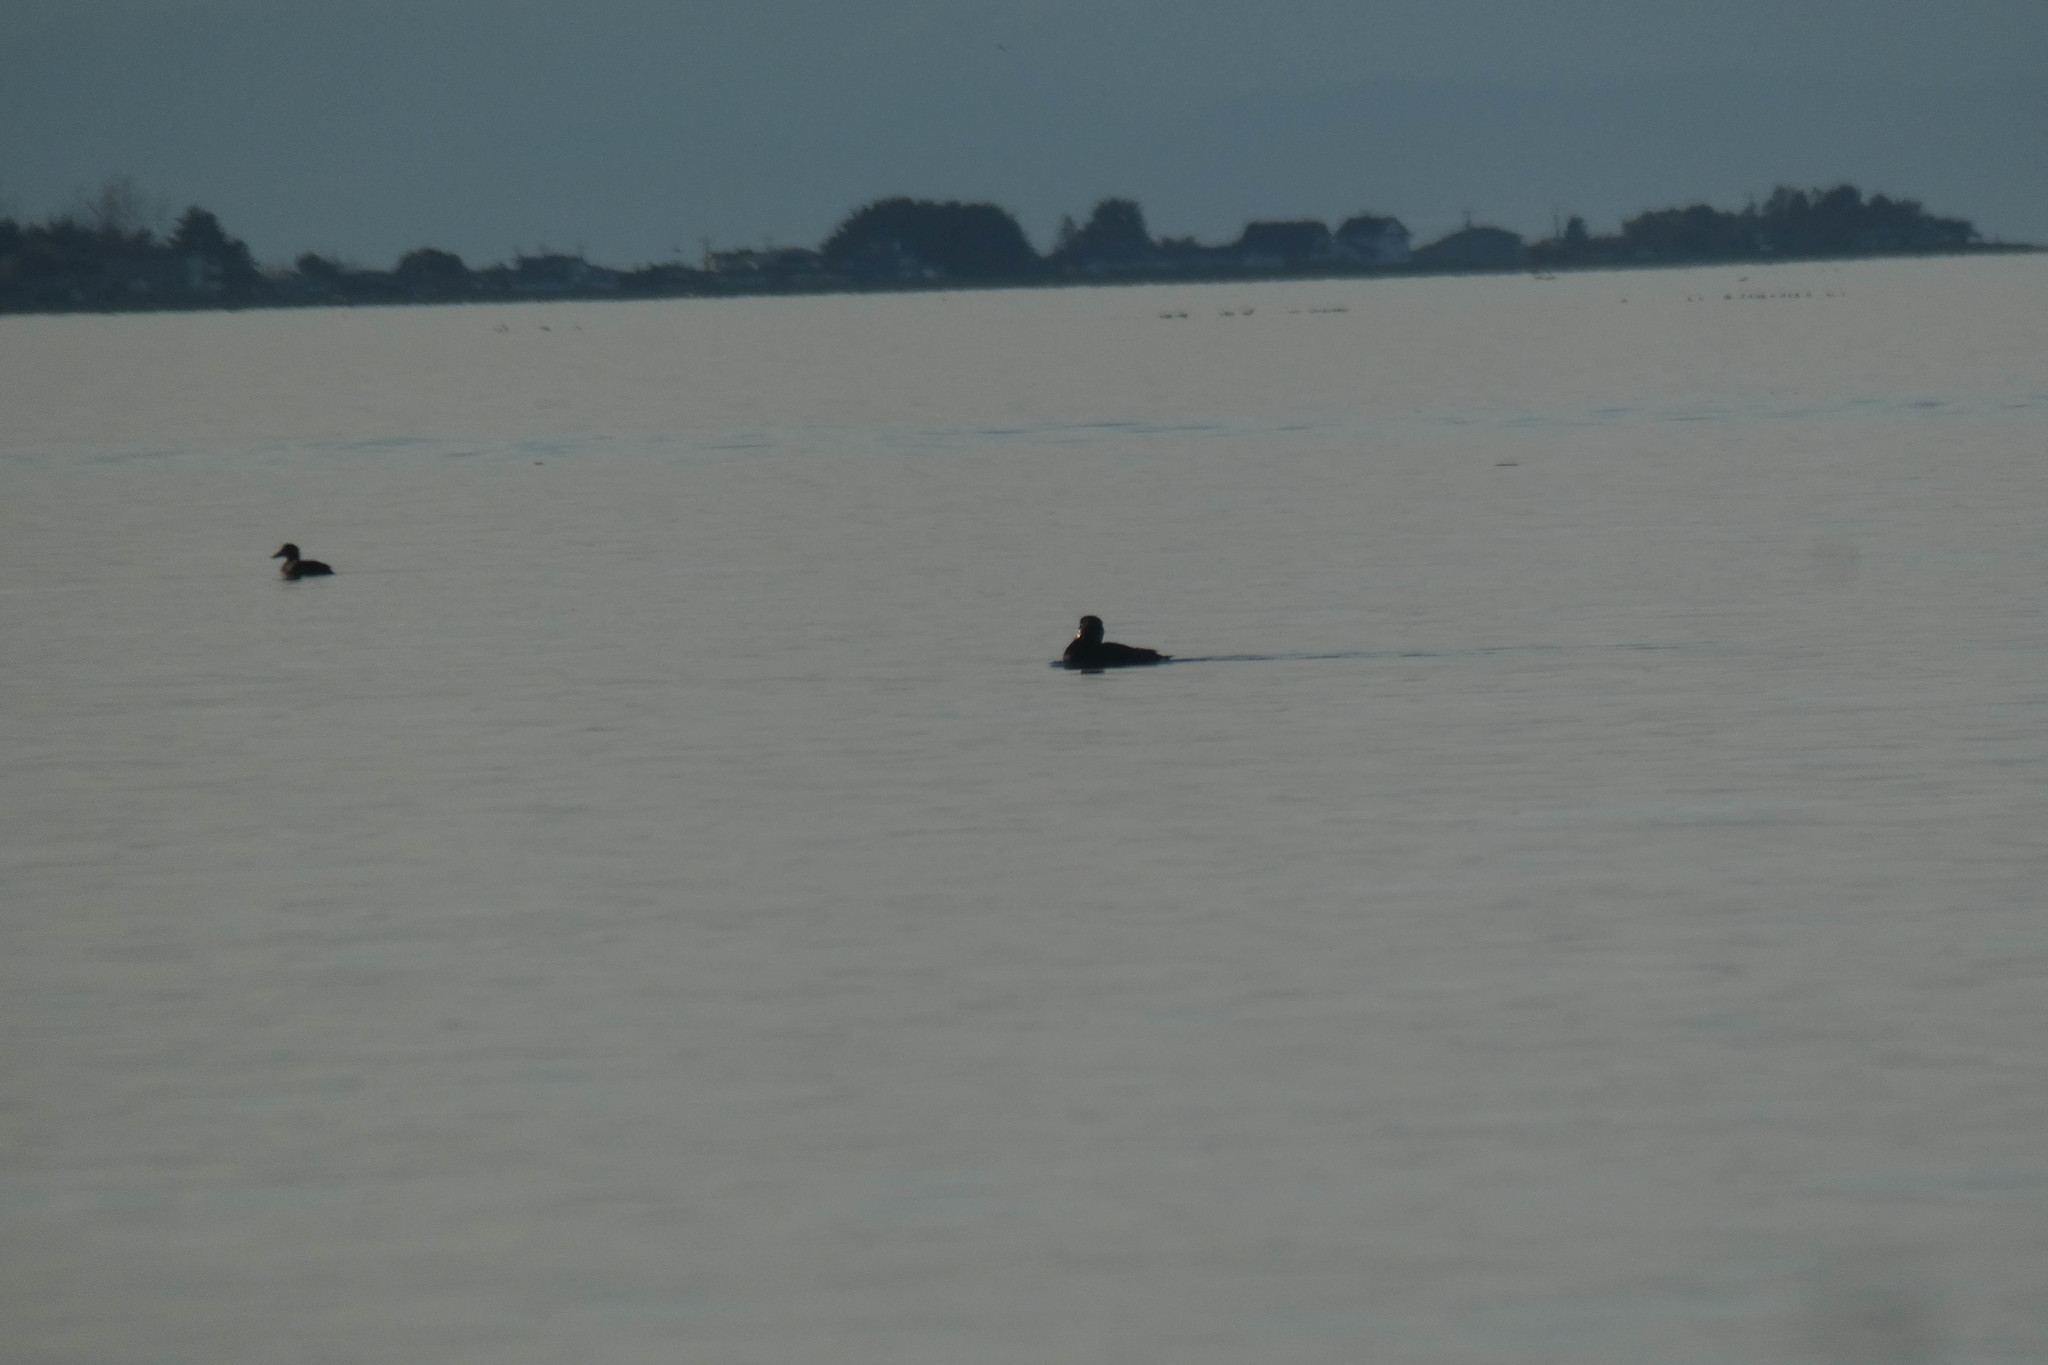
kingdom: Animalia
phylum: Chordata
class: Aves
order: Anseriformes
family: Anatidae
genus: Melanitta
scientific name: Melanitta perspicillata
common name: Surf scoter
